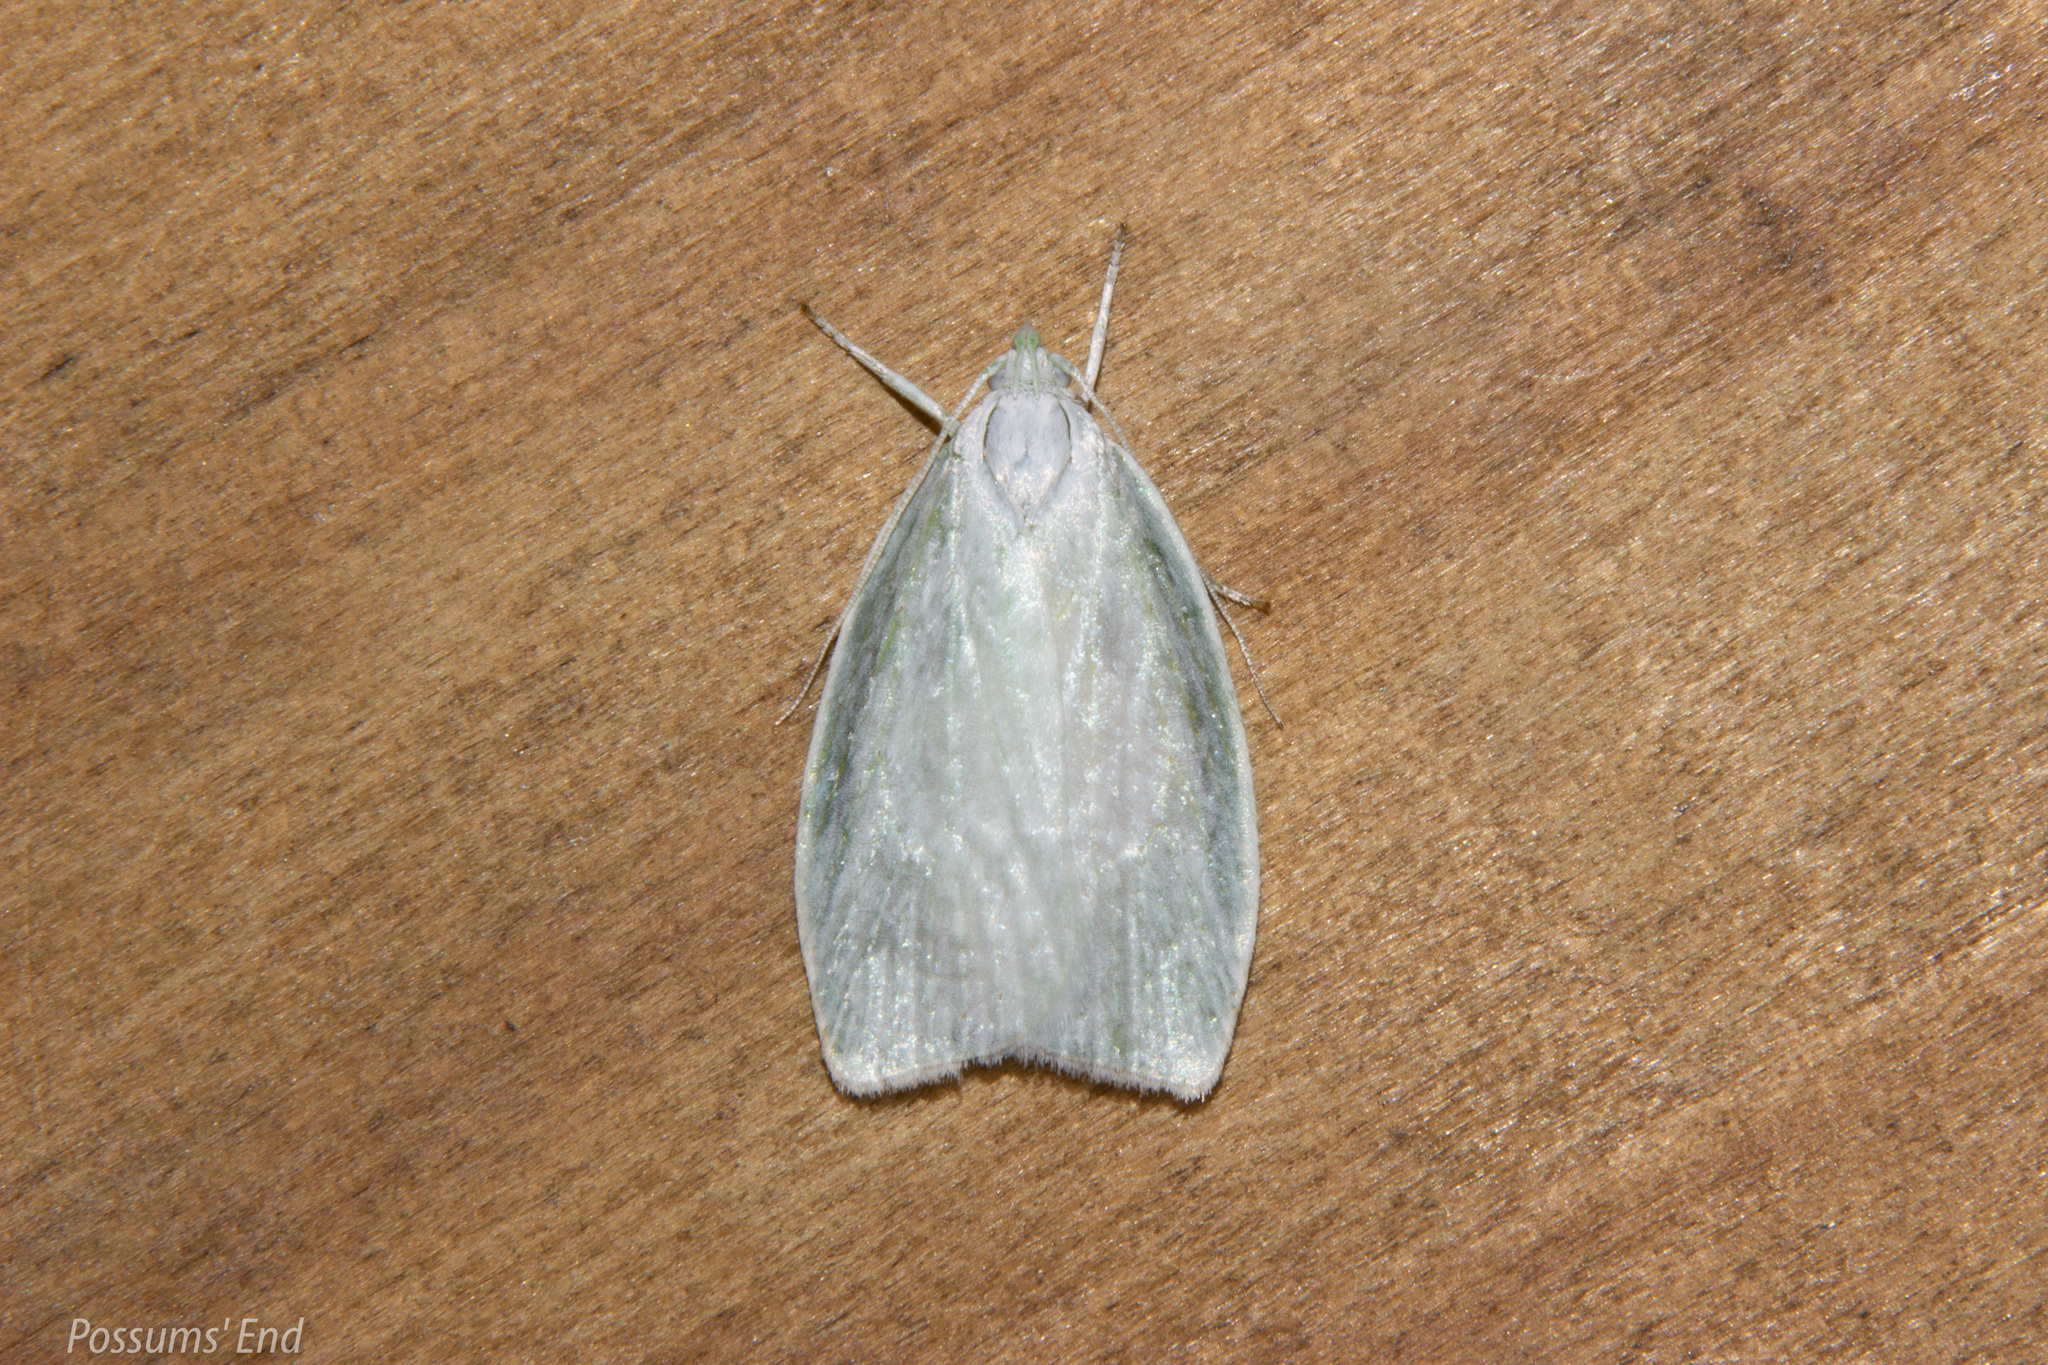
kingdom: Animalia
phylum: Arthropoda
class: Insecta
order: Lepidoptera
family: Oecophoridae
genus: Nymphostola
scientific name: Nymphostola galactina
